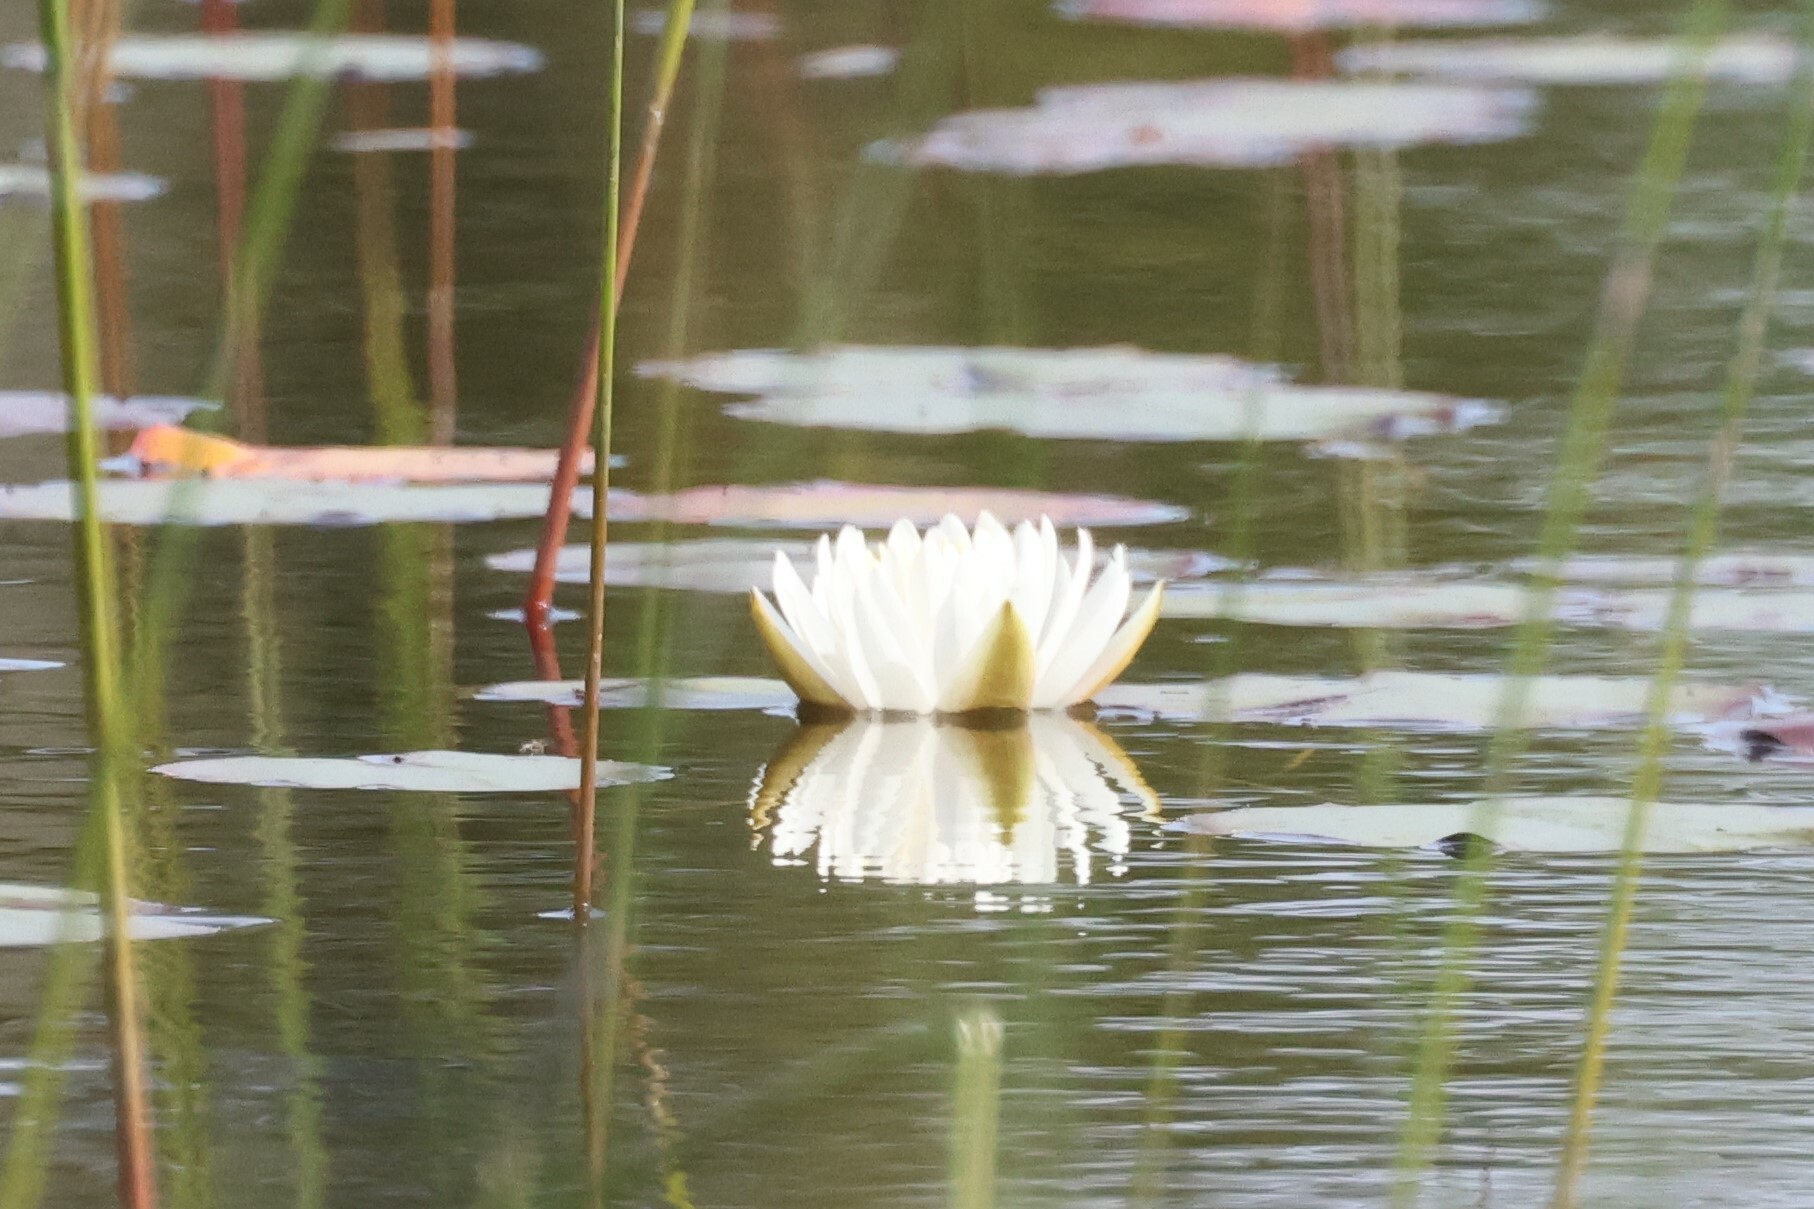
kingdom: Plantae
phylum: Tracheophyta
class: Magnoliopsida
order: Nymphaeales
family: Nymphaeaceae
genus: Nymphaea
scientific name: Nymphaea odorata
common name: Fragrant water-lily
